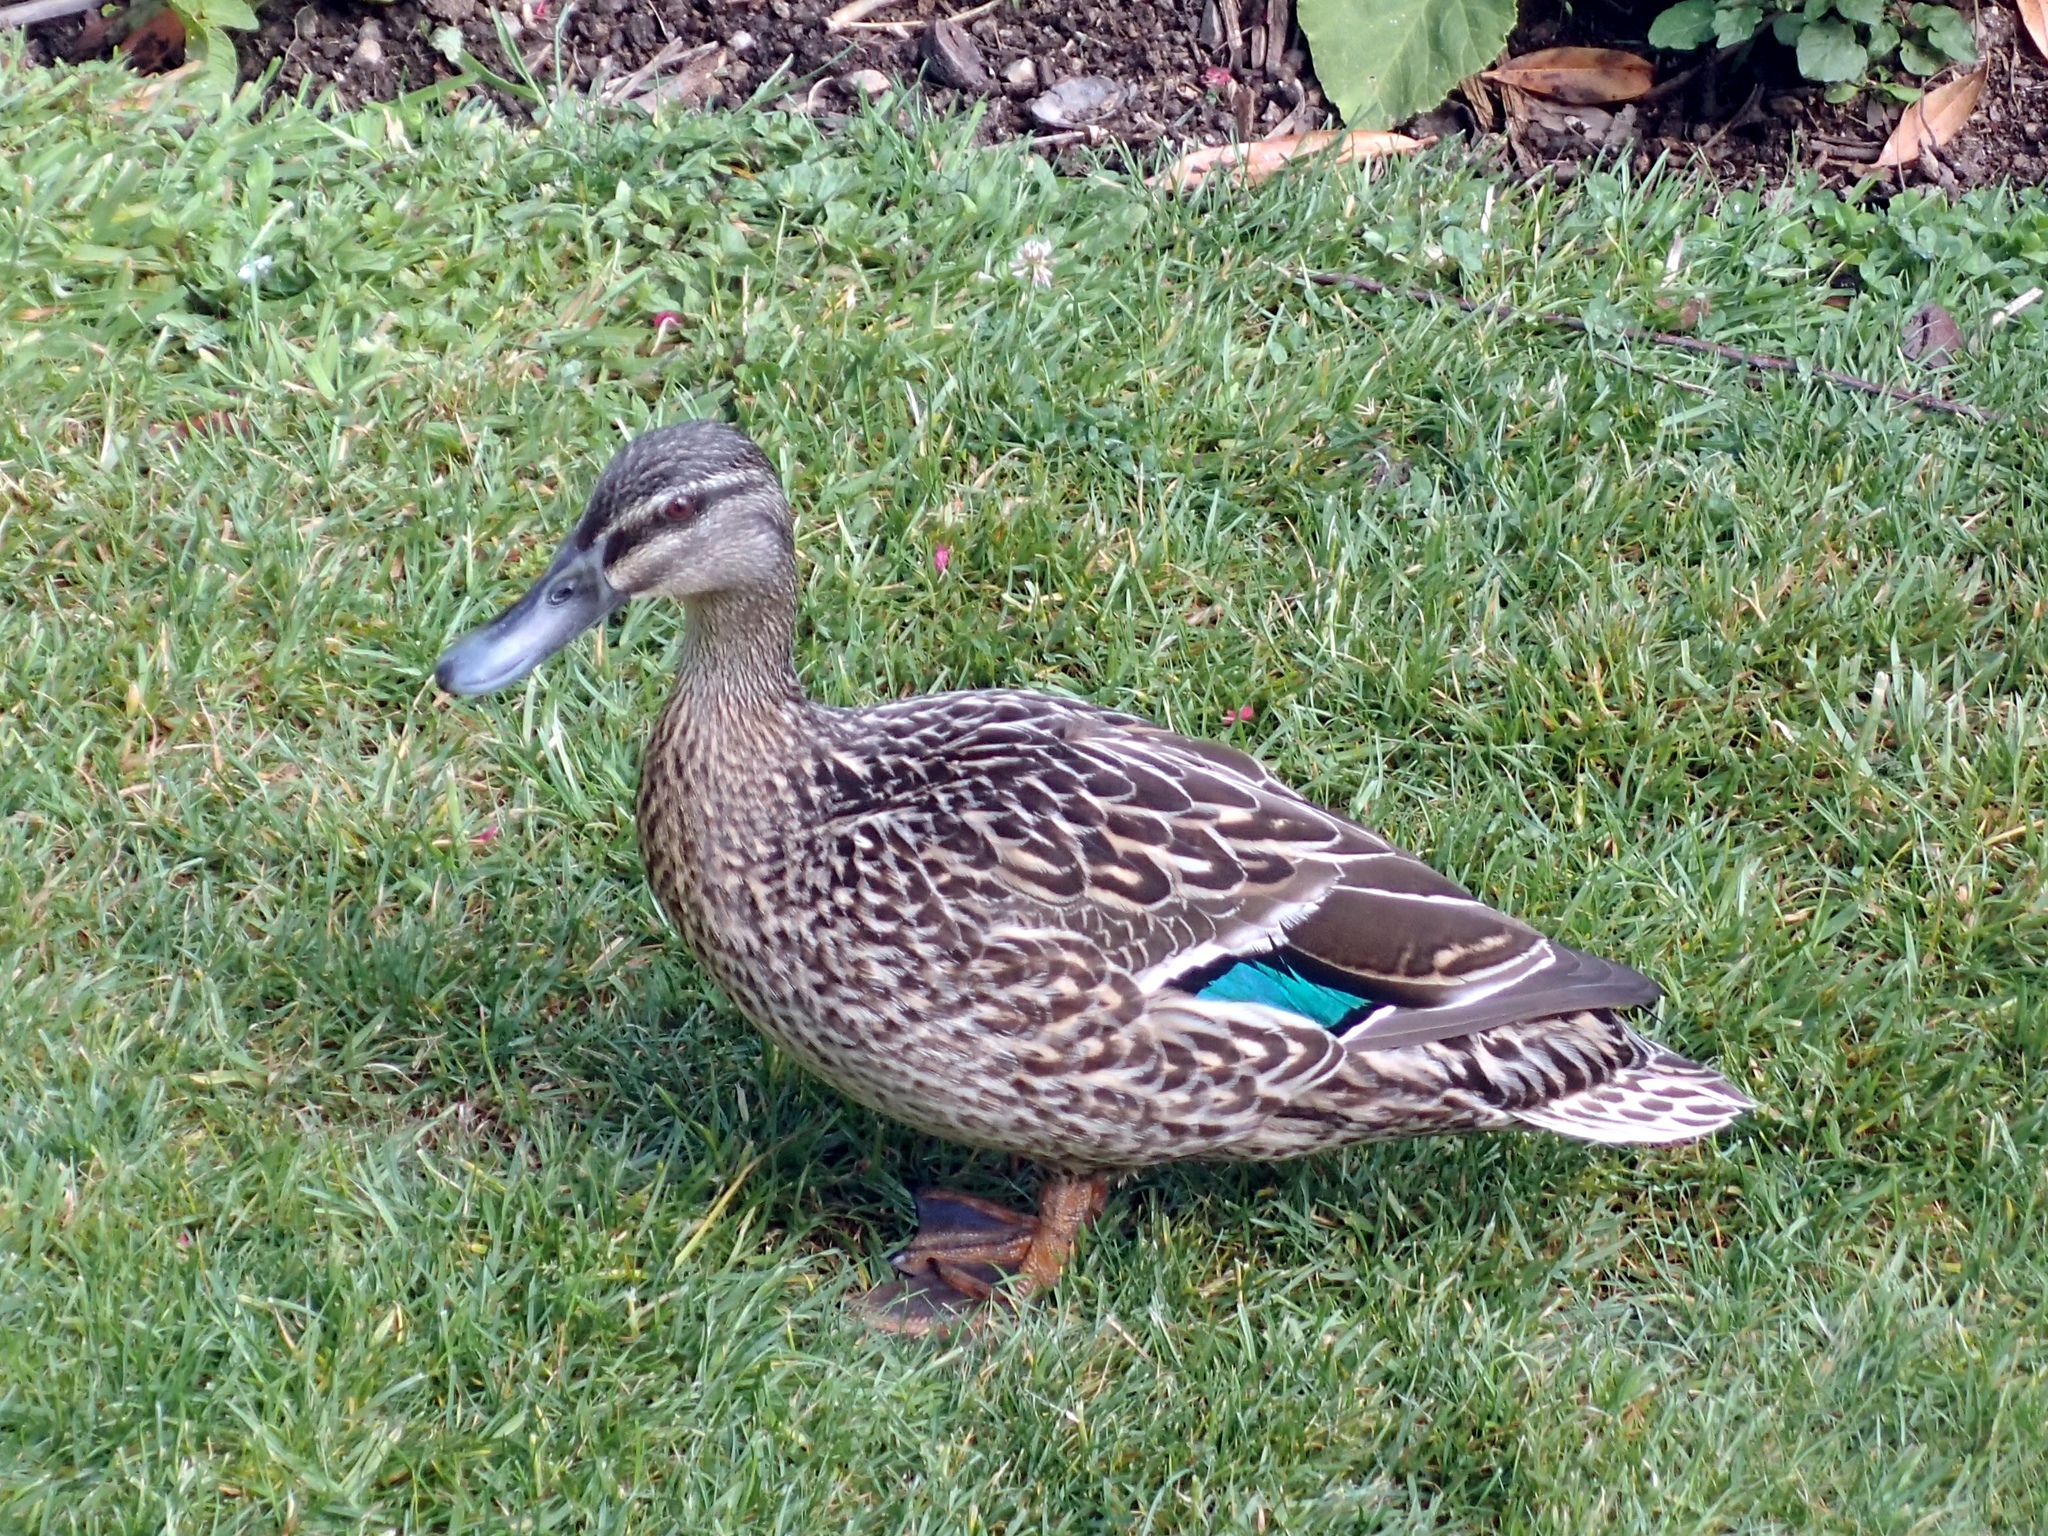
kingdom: Animalia
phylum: Chordata
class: Aves
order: Anseriformes
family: Anatidae
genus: Anas
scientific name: Anas
